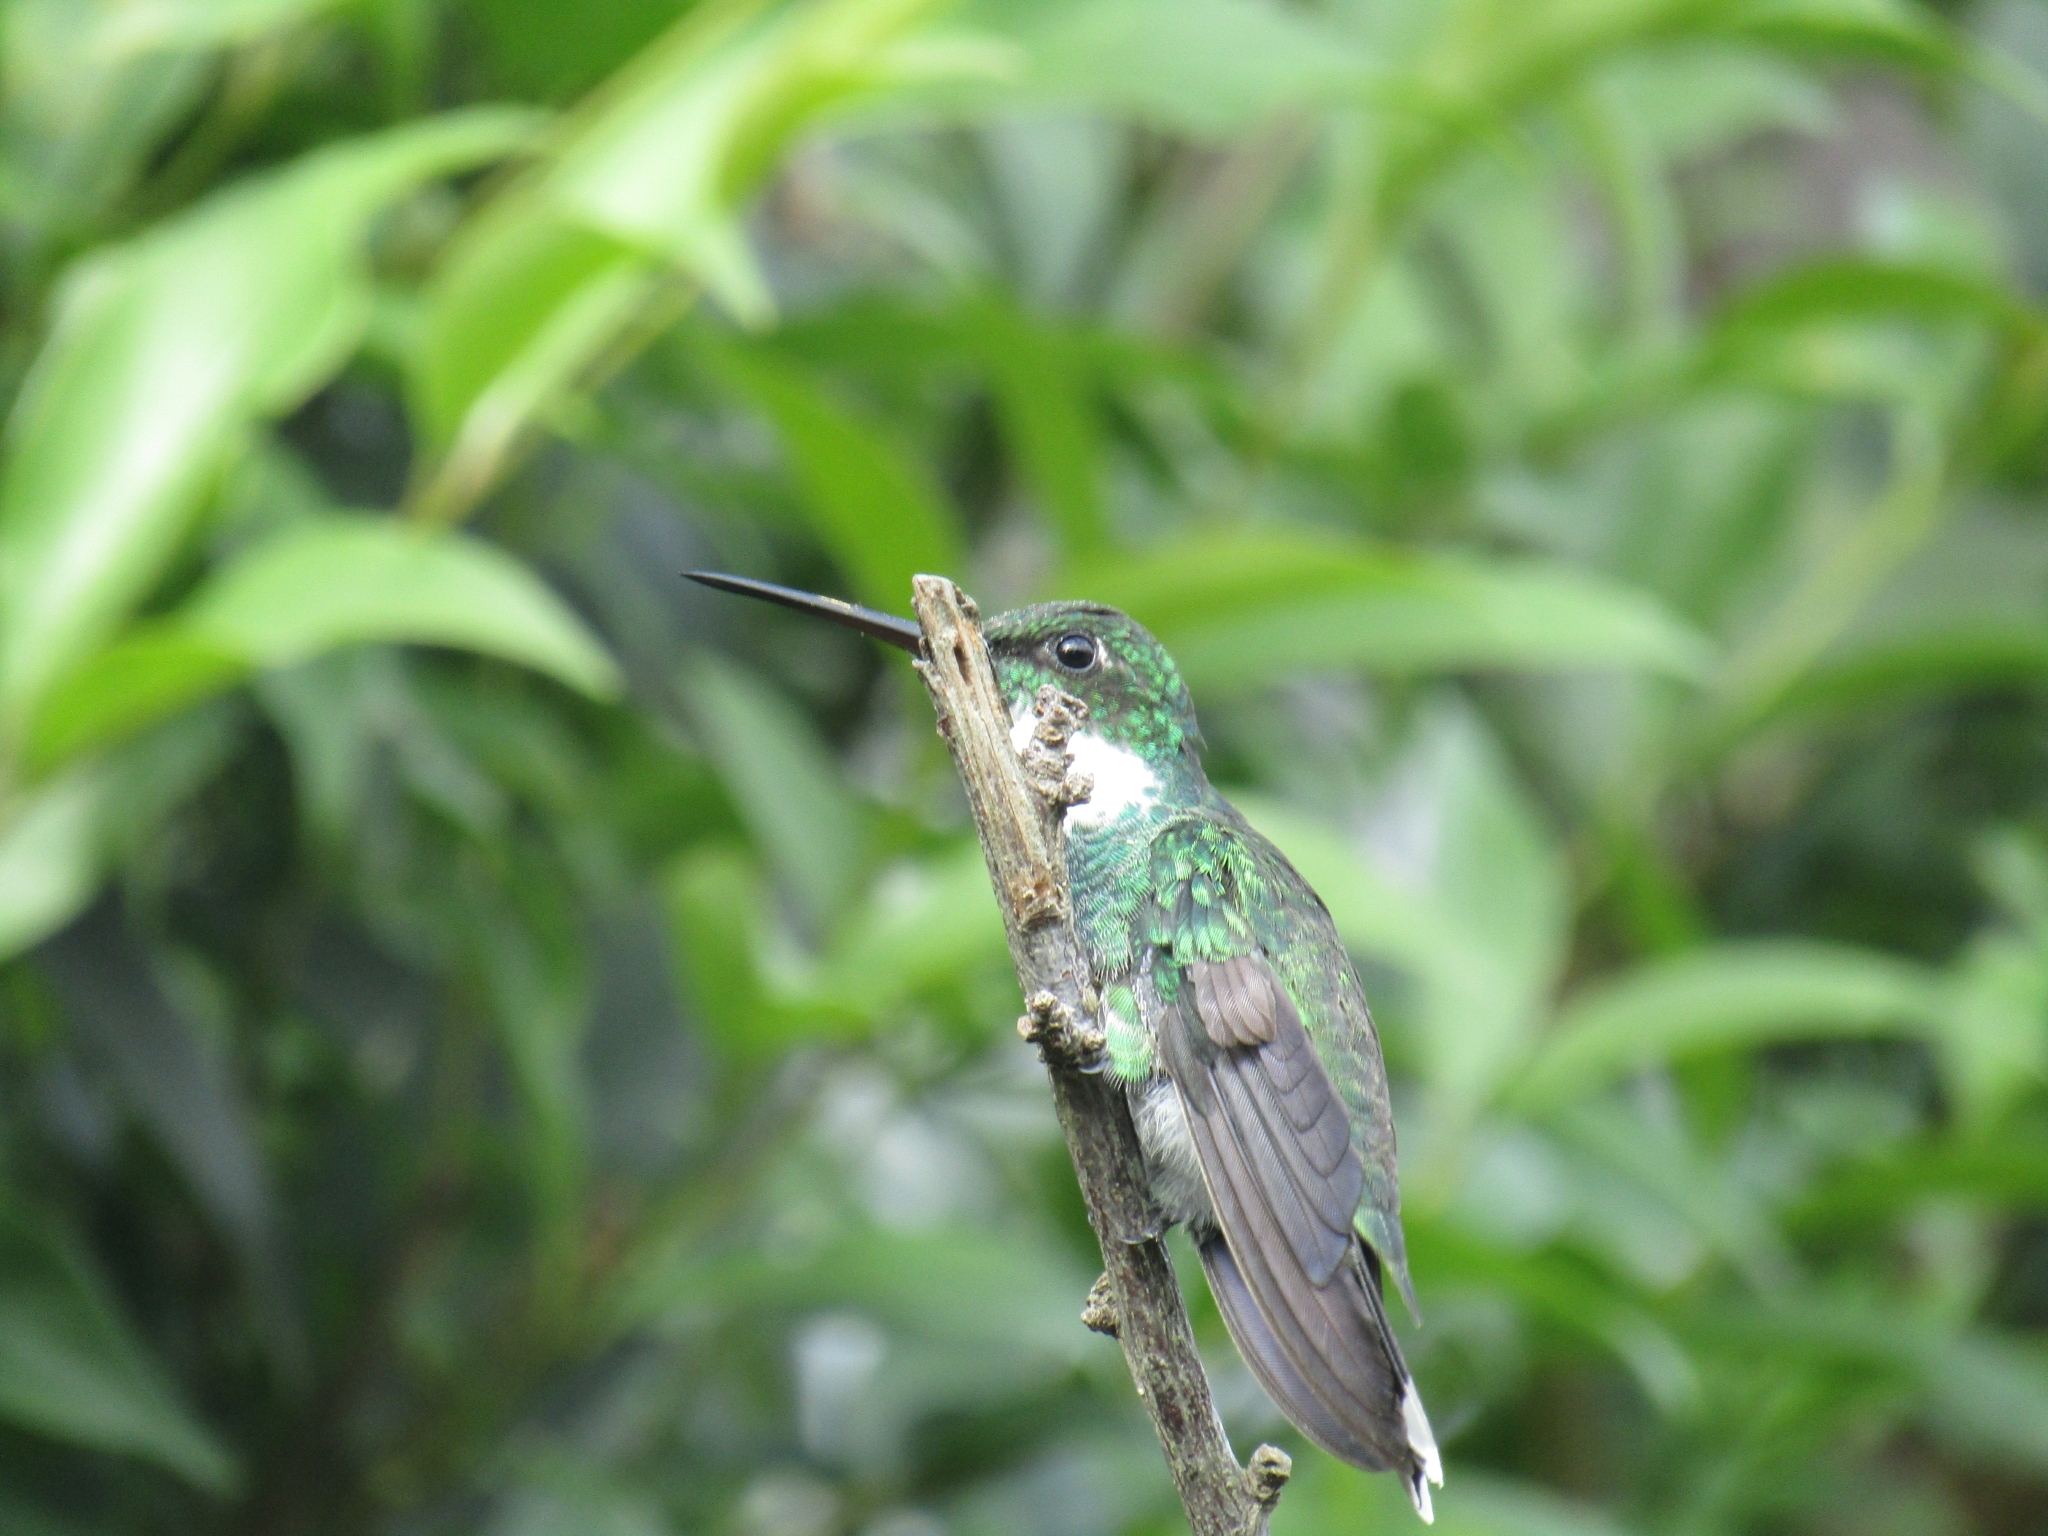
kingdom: Animalia
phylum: Chordata
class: Aves
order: Apodiformes
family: Trochilidae
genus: Leucochloris
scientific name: Leucochloris albicollis
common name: White-throated hummingbird
